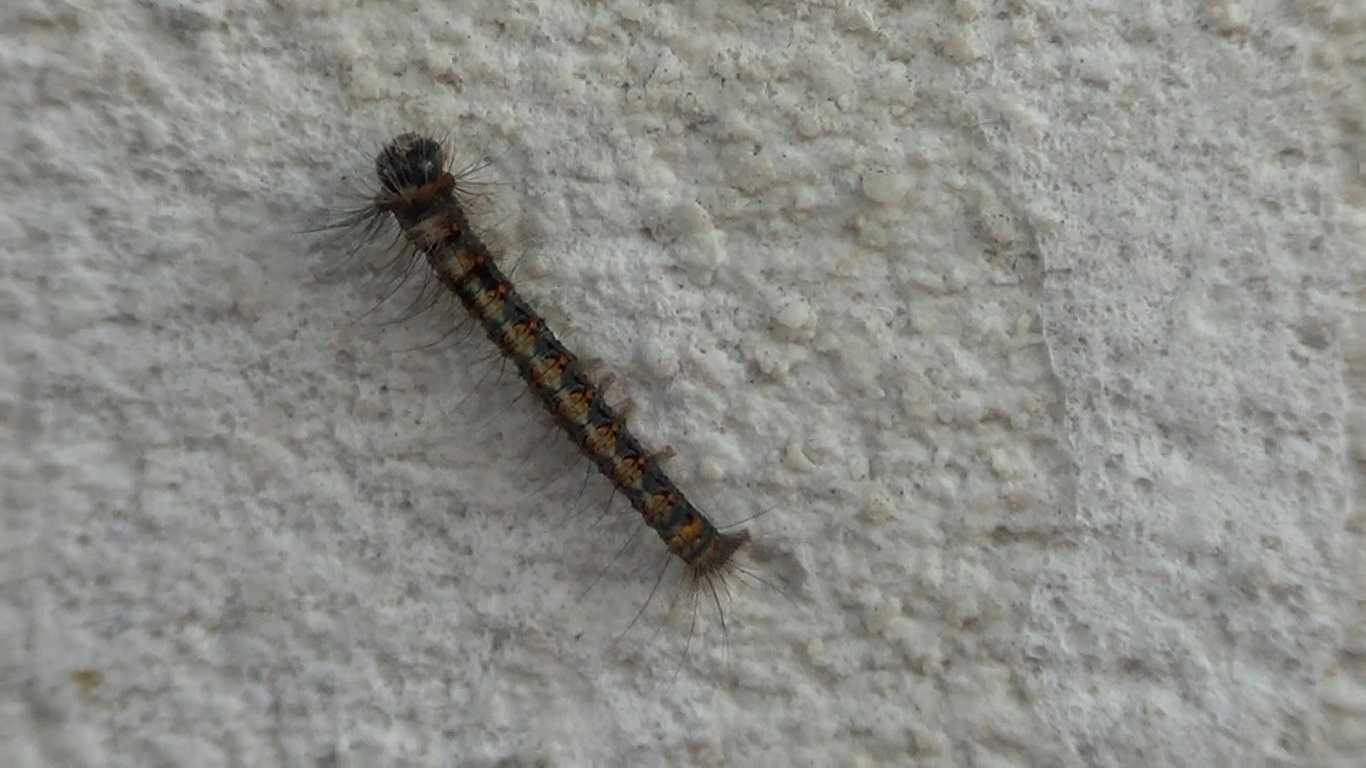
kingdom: Animalia
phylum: Arthropoda
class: Insecta
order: Lepidoptera
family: Lasiocampidae
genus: Lasiocampa
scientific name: Lasiocampa quercus
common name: Oak eggar
